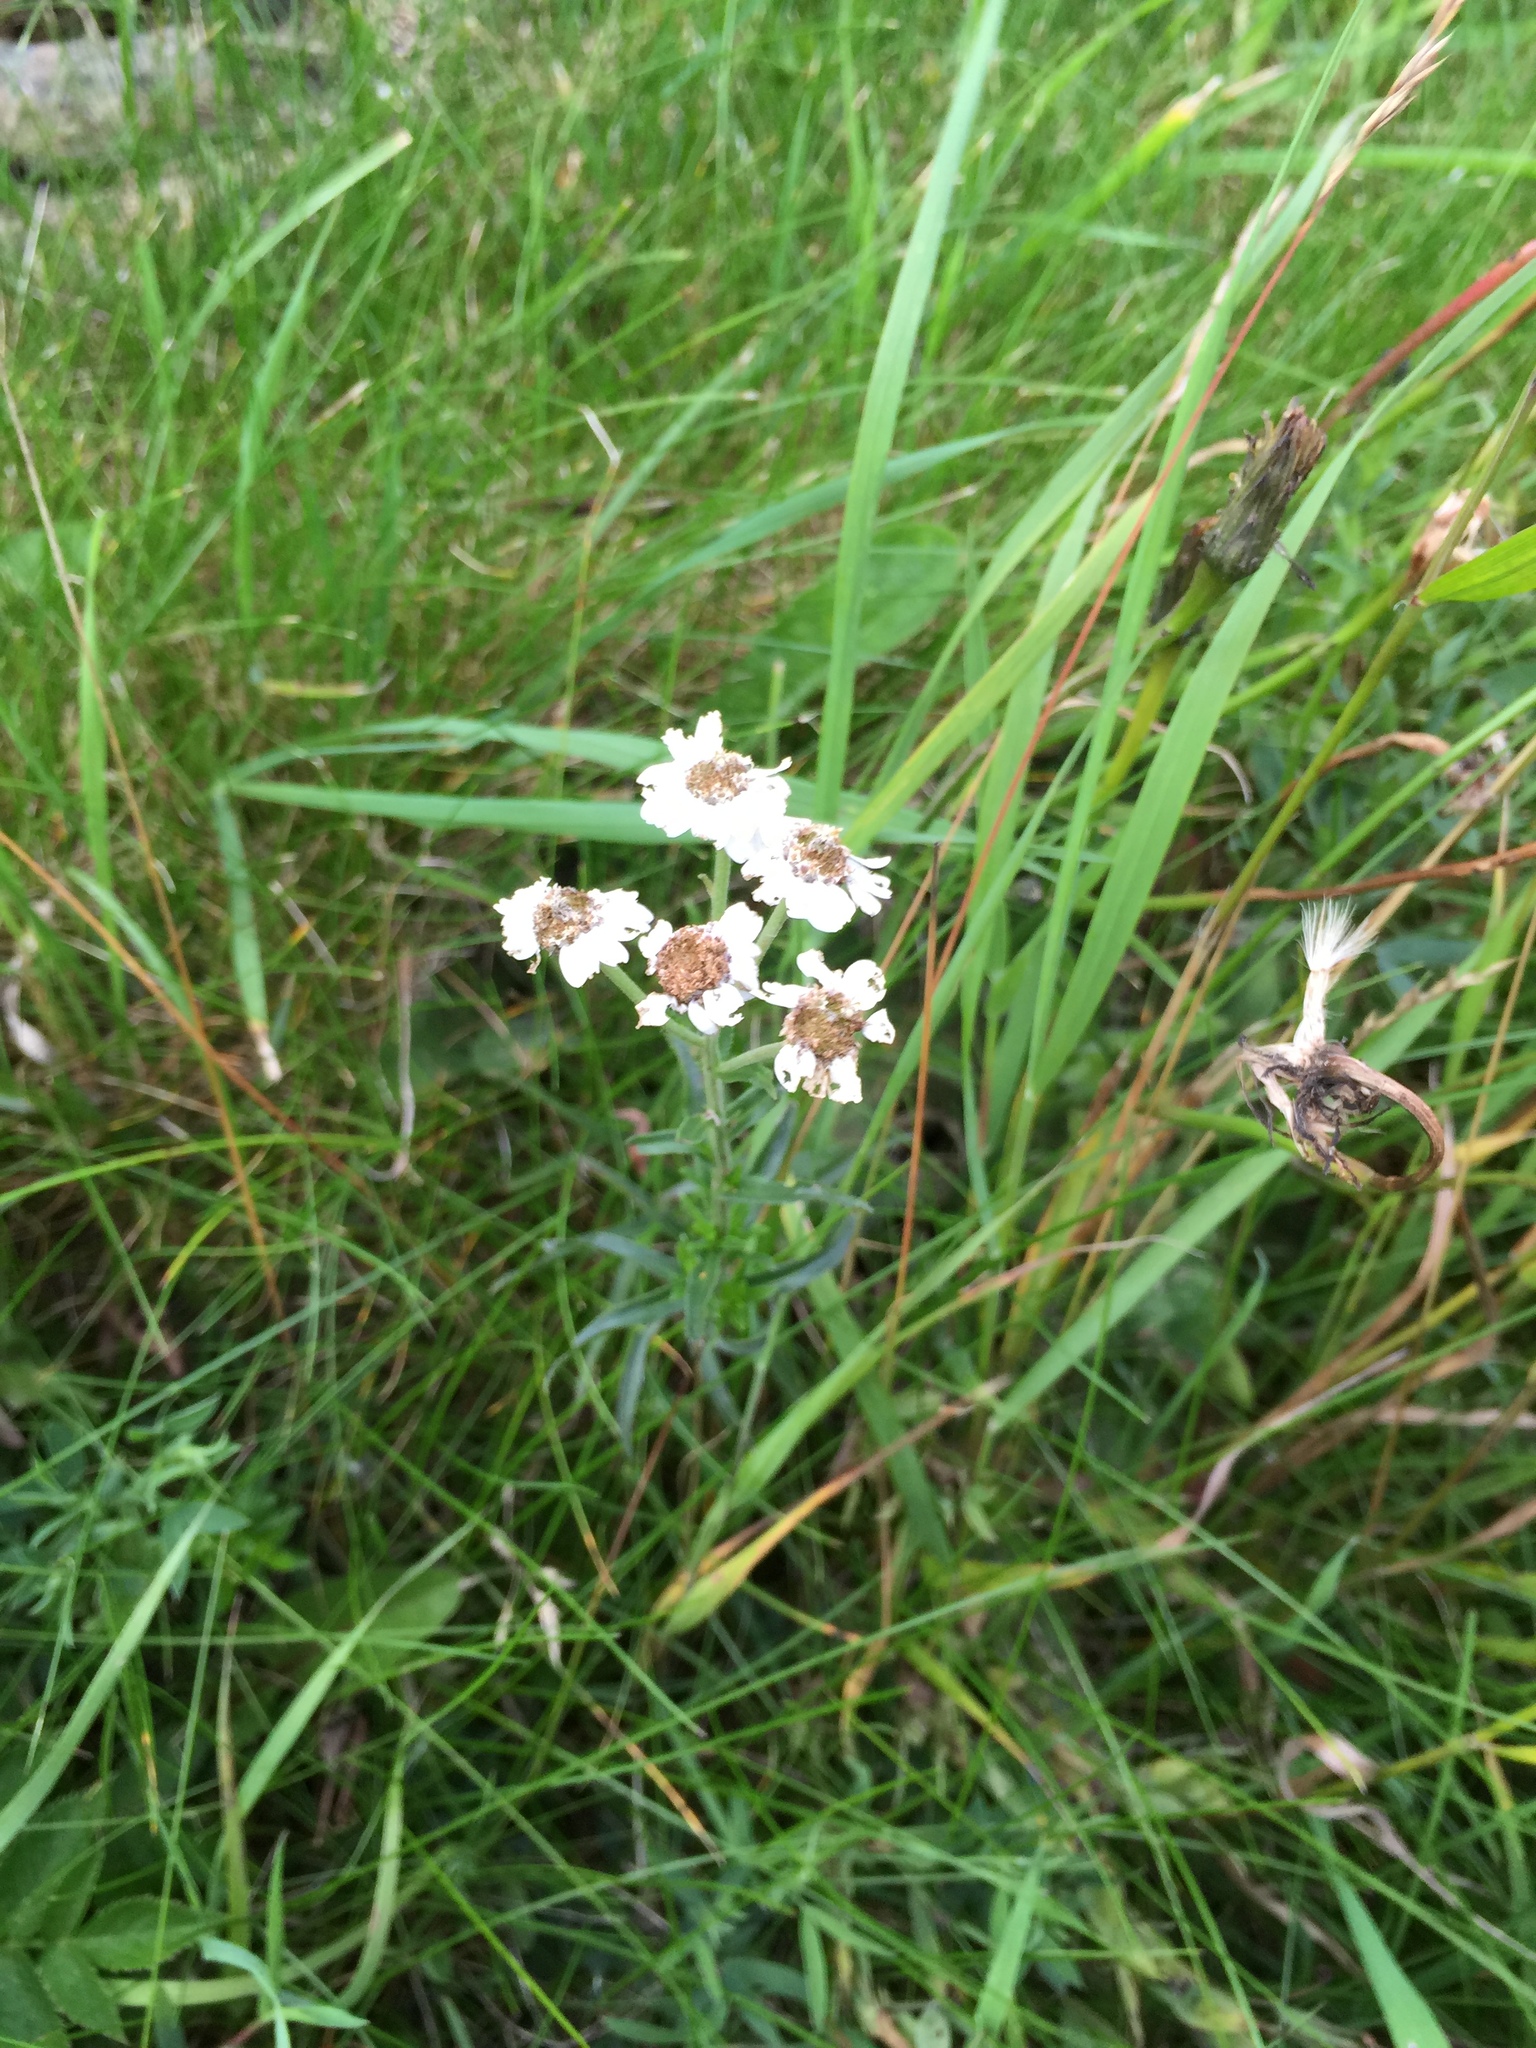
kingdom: Plantae
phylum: Tracheophyta
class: Magnoliopsida
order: Asterales
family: Asteraceae
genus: Achillea
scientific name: Achillea ptarmica
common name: Sneezeweed
